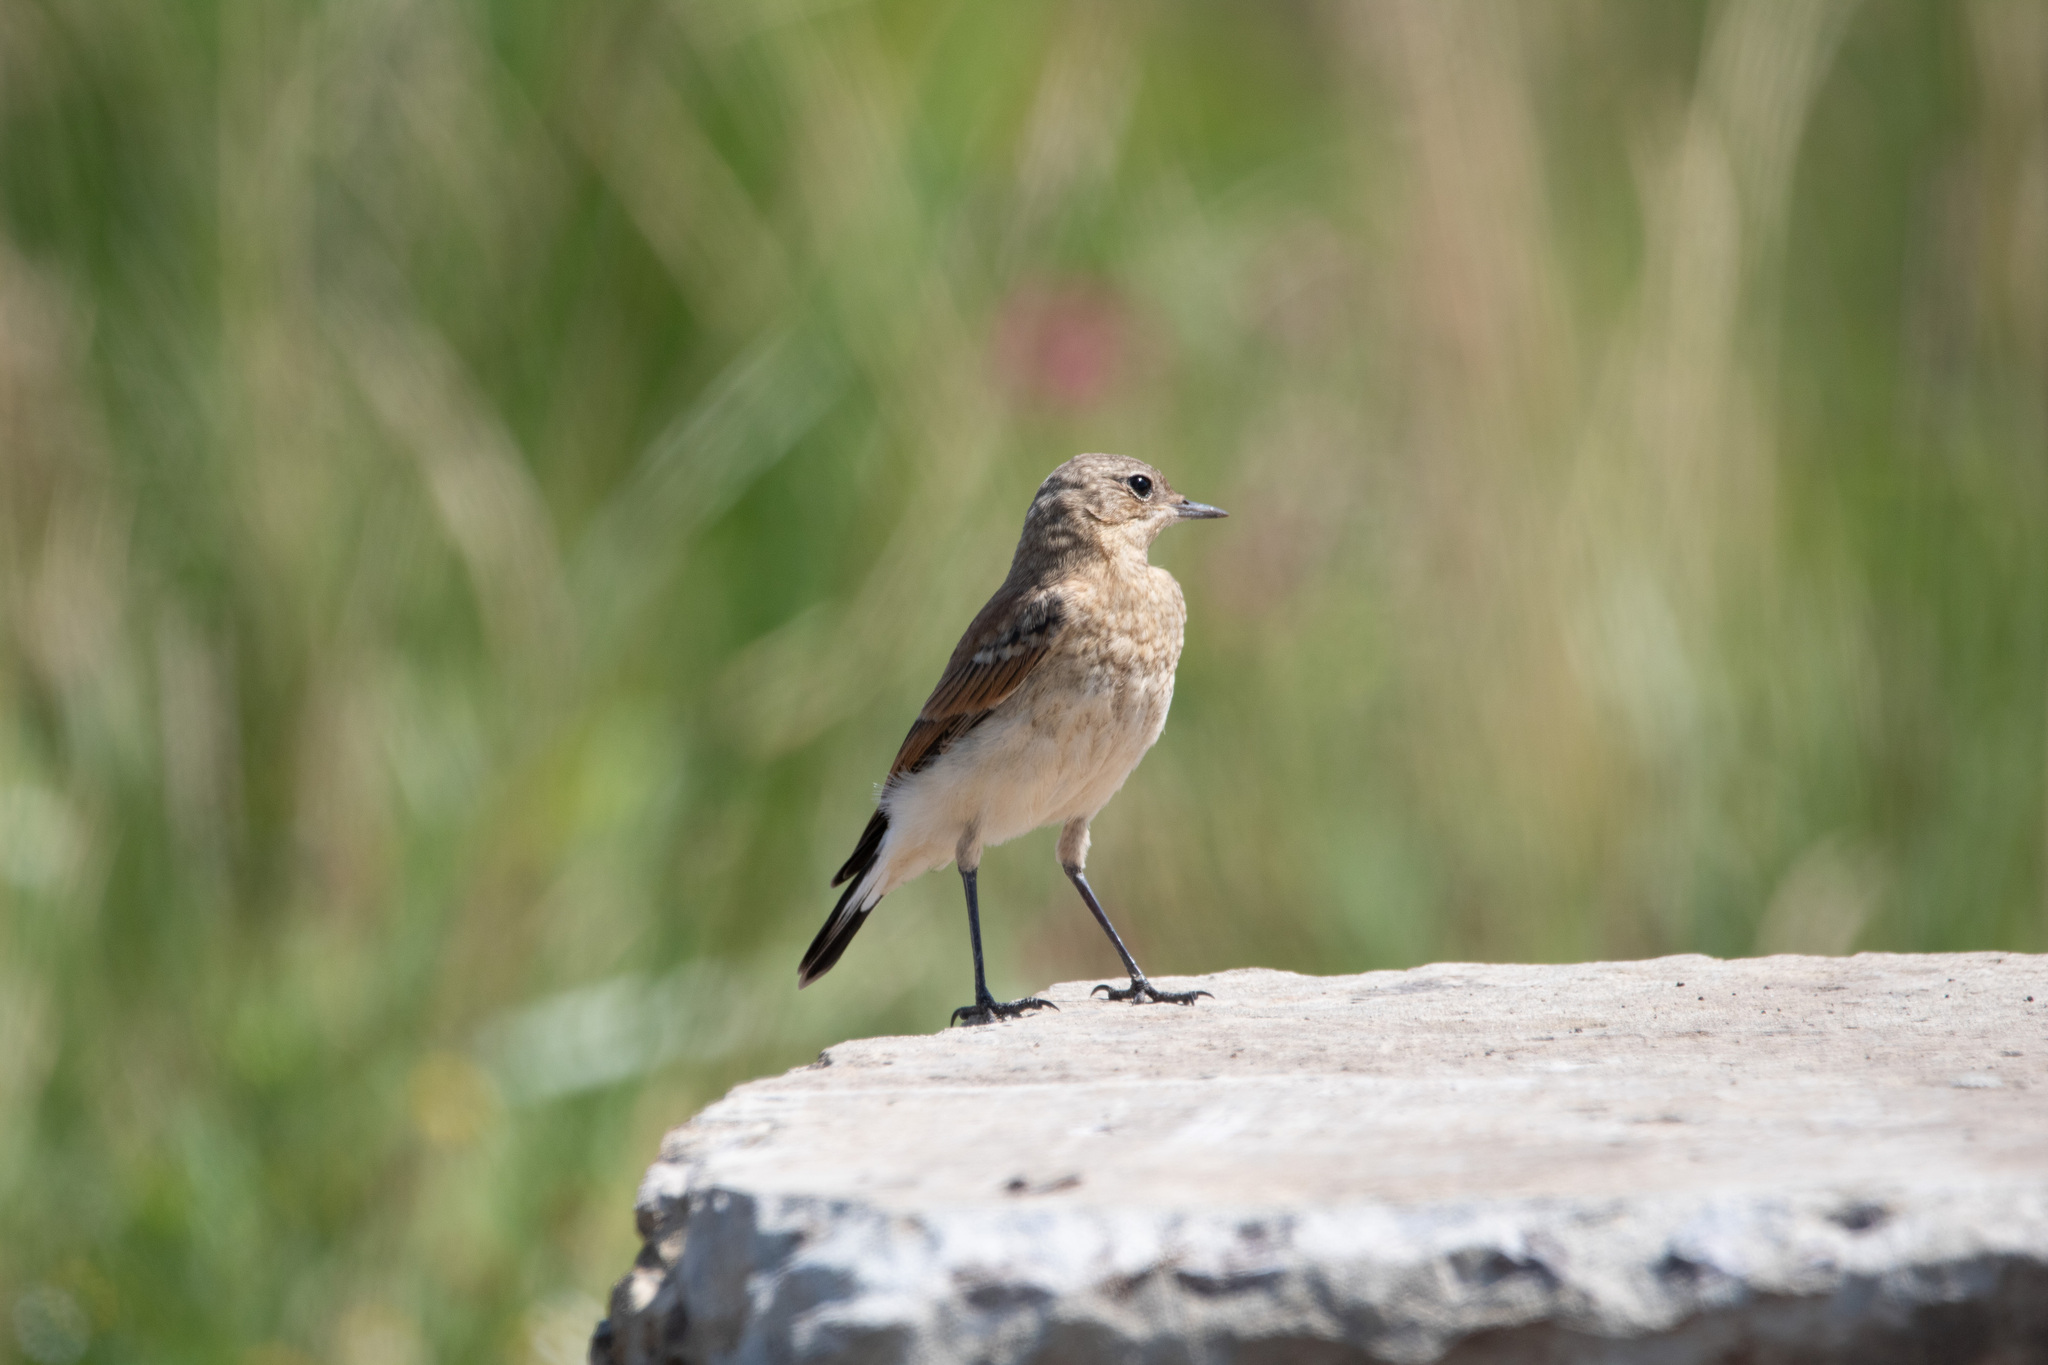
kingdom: Animalia
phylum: Chordata
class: Aves
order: Passeriformes
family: Muscicapidae
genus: Oenanthe
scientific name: Oenanthe oenanthe
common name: Northern wheatear
